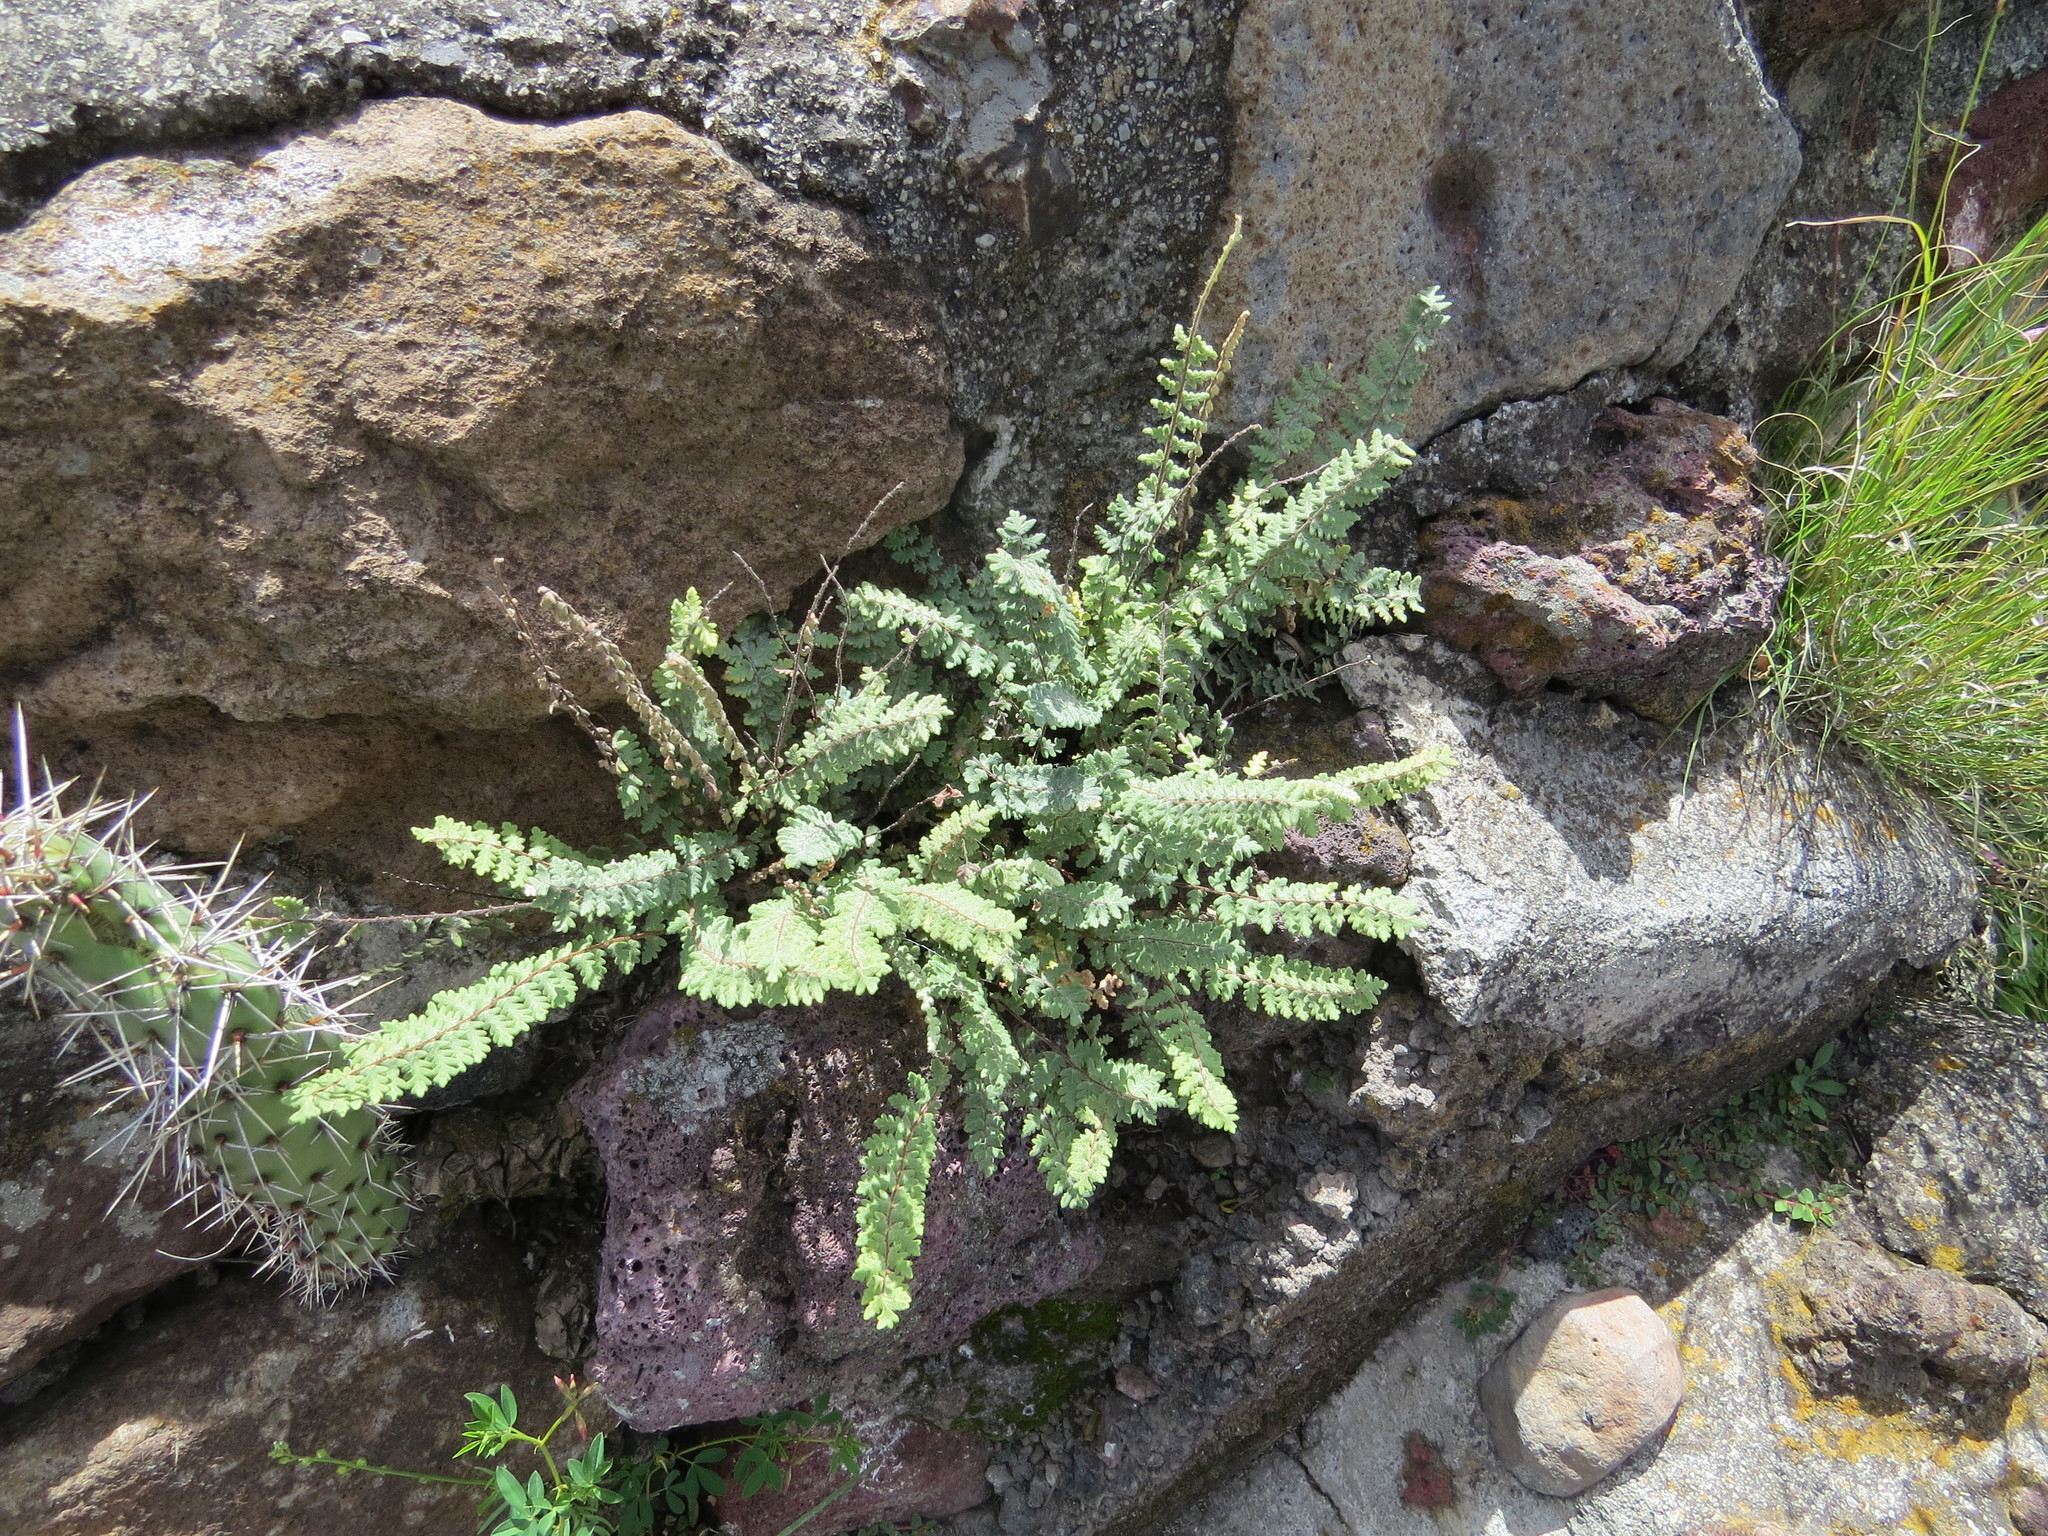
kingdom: Plantae
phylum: Tracheophyta
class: Polypodiopsida
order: Polypodiales
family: Pteridaceae
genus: Myriopteris
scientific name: Myriopteris aurea
